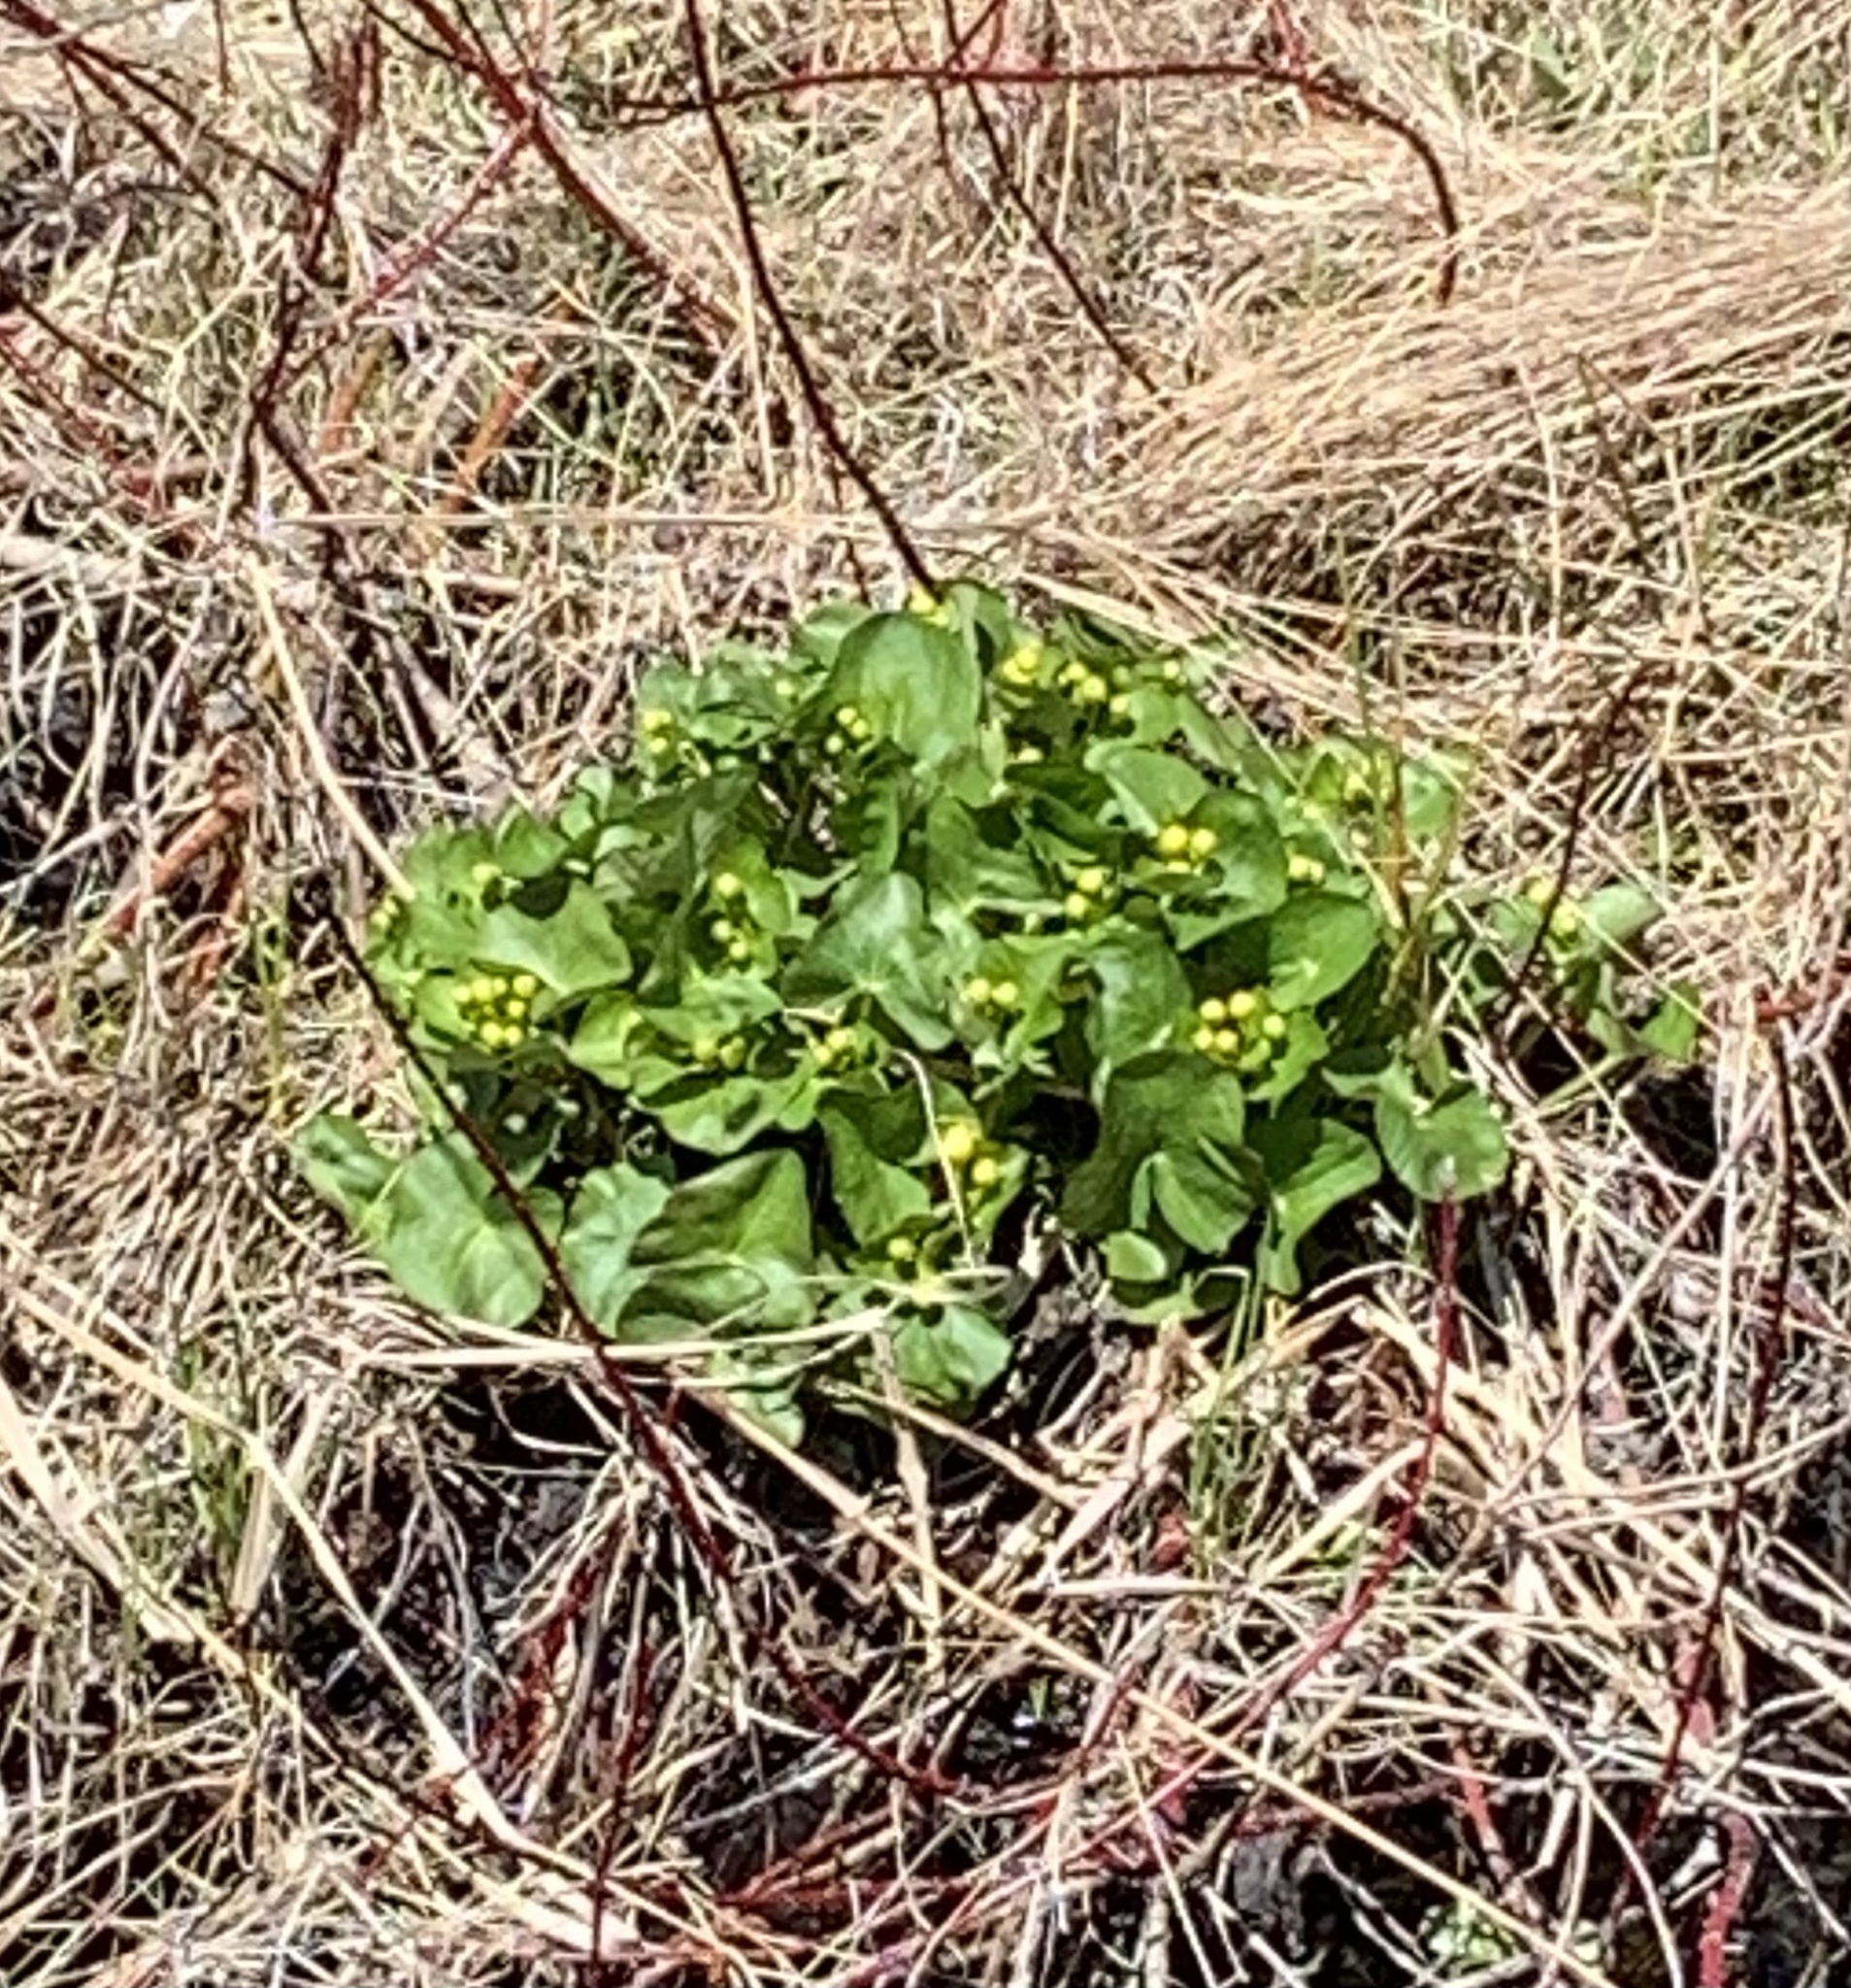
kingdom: Plantae
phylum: Tracheophyta
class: Magnoliopsida
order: Ranunculales
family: Ranunculaceae
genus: Caltha
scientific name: Caltha palustris
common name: Marsh marigold
